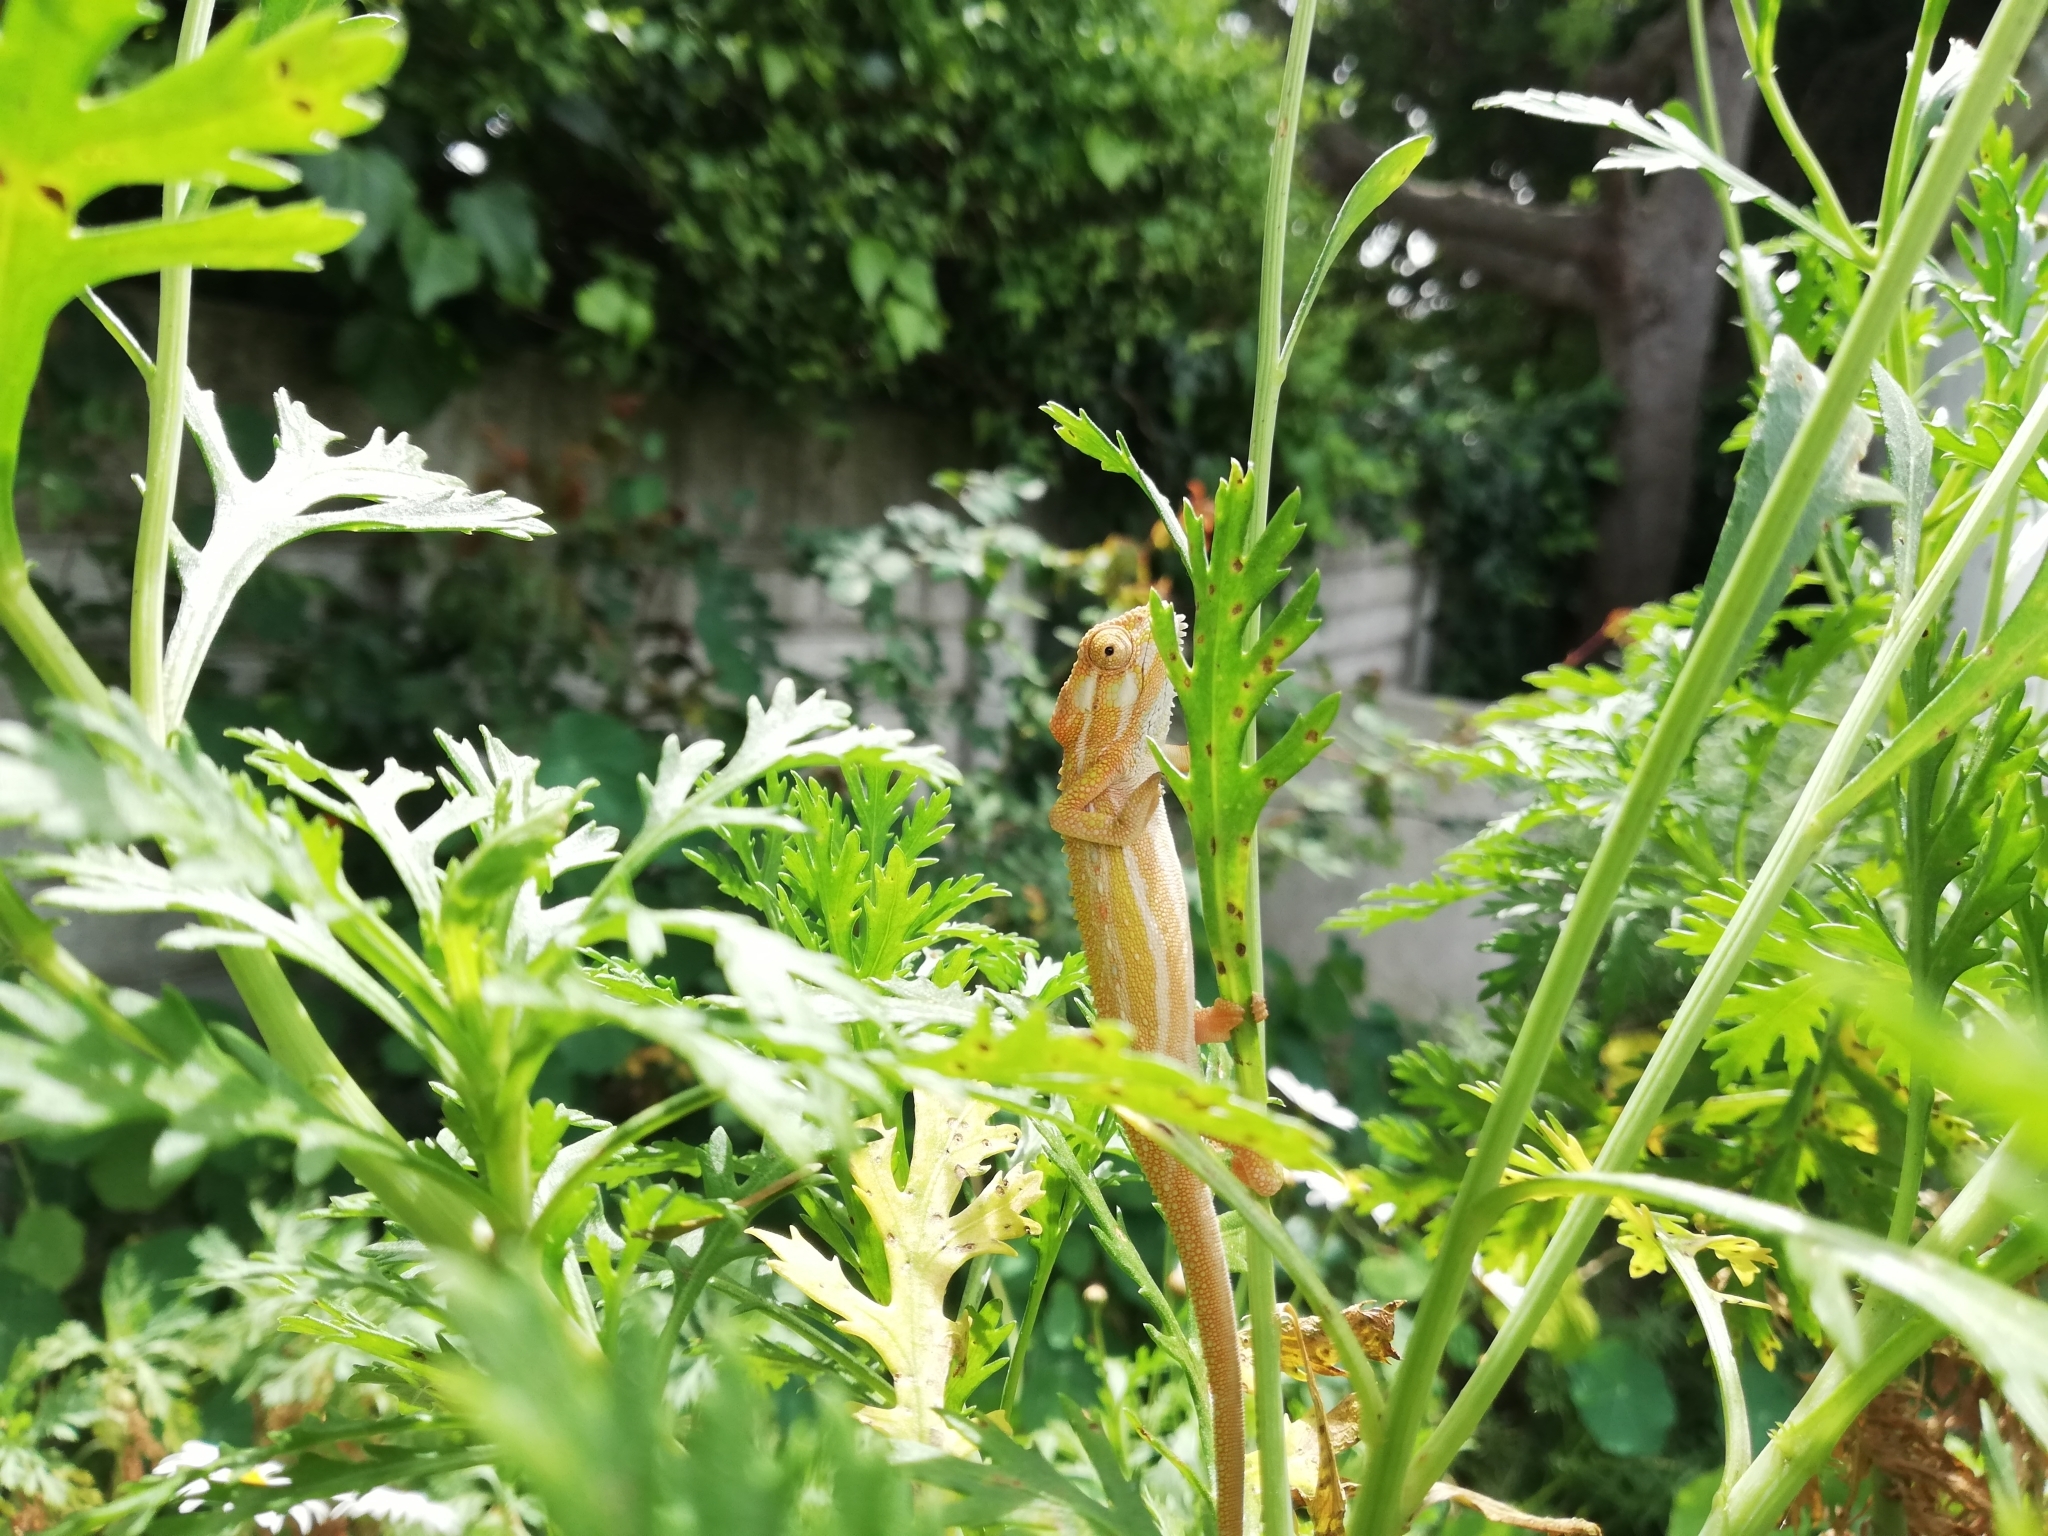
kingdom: Animalia
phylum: Chordata
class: Squamata
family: Chamaeleonidae
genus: Bradypodion
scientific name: Bradypodion pumilum
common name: Cape dwarf chameleon
